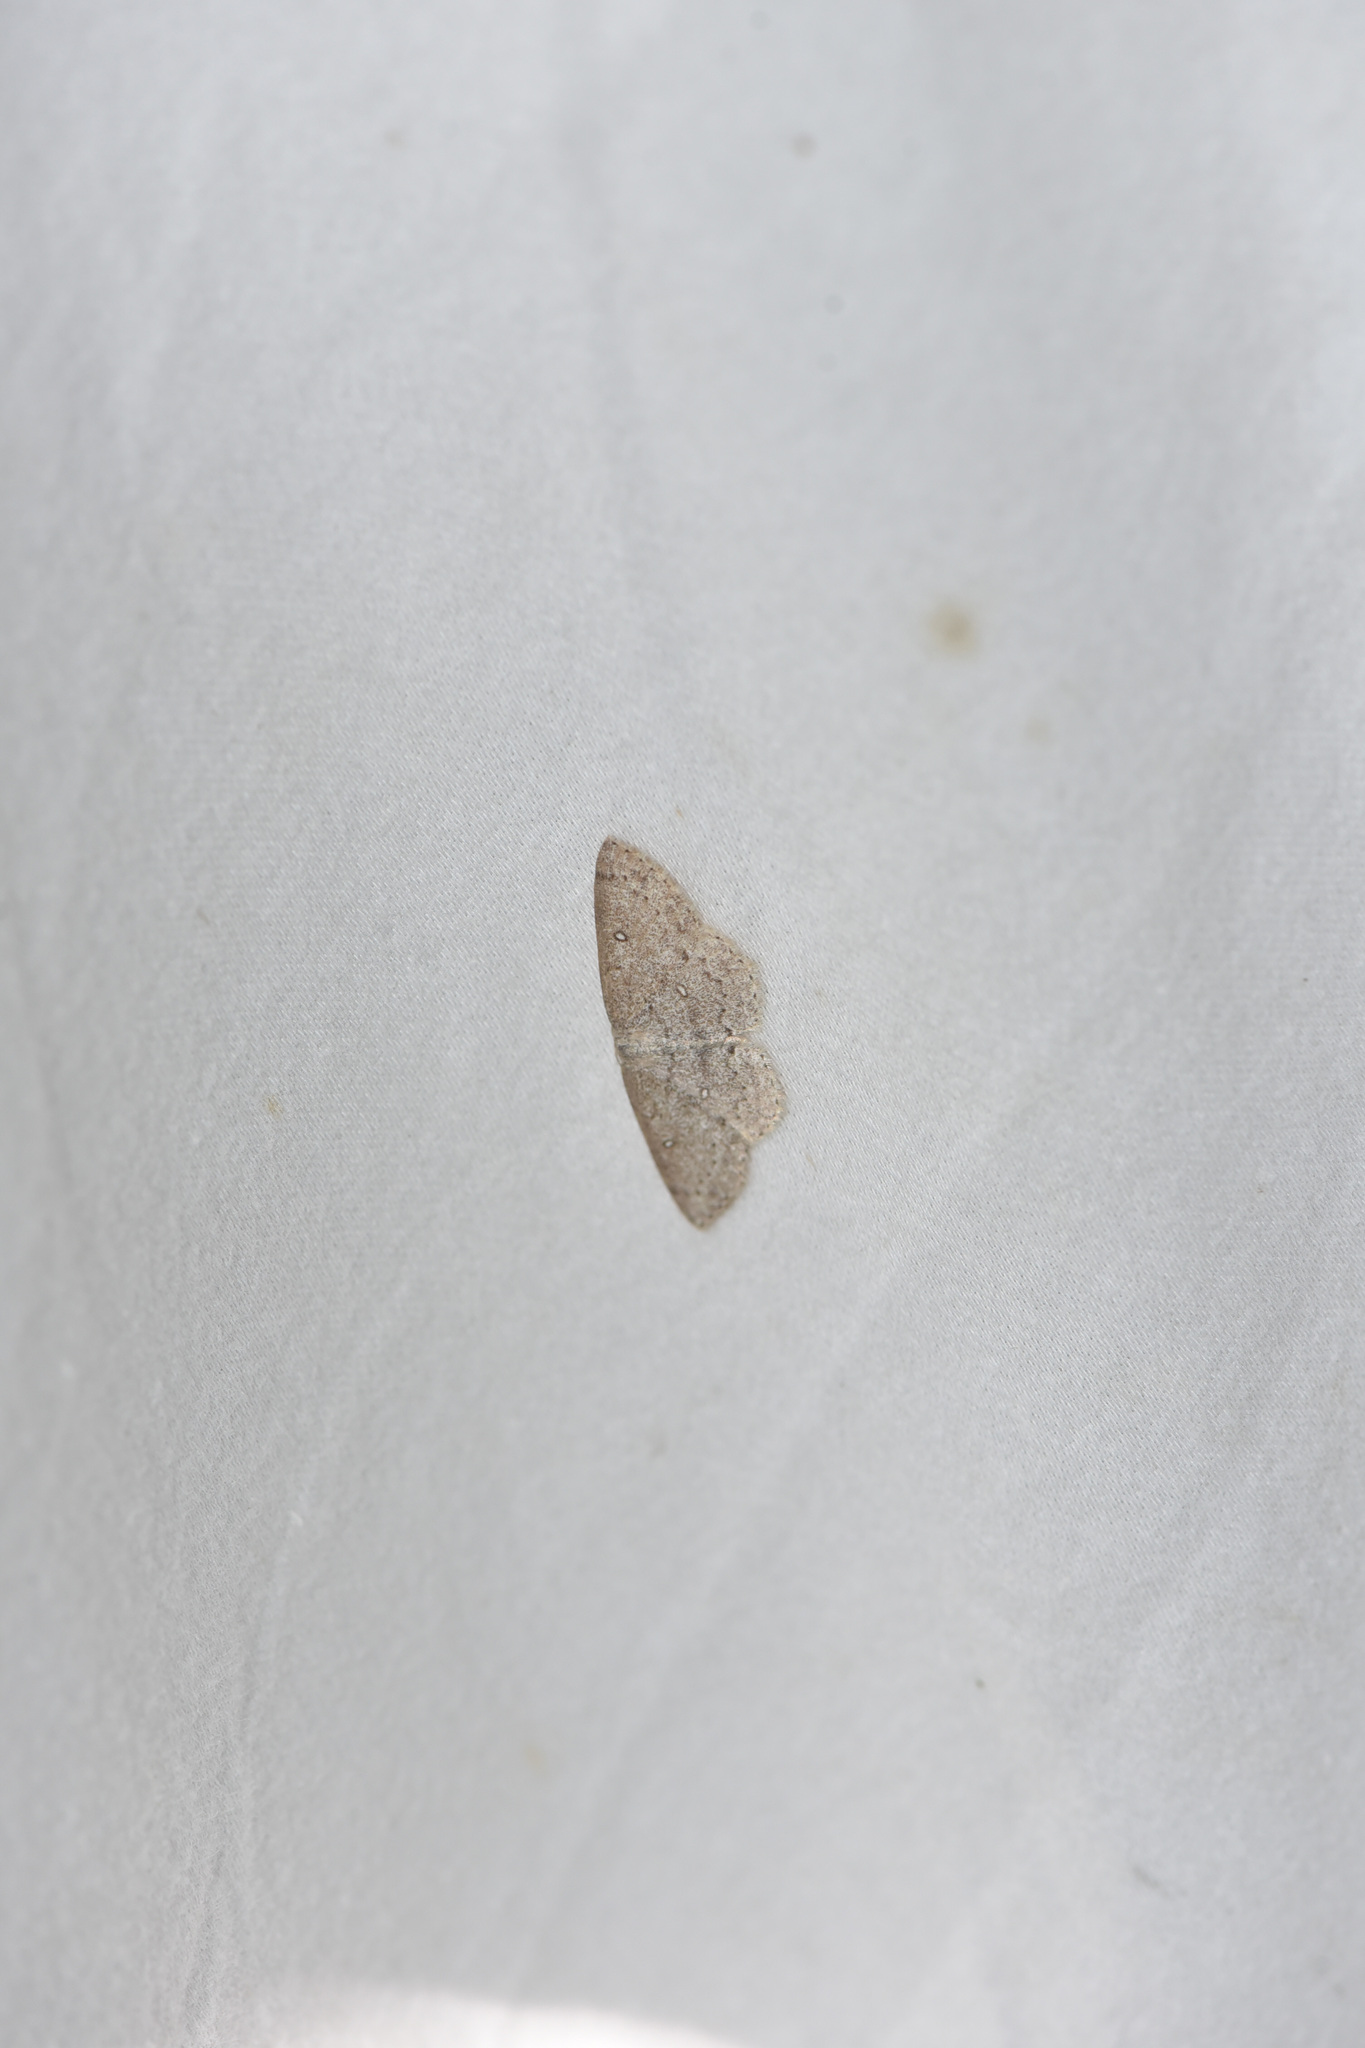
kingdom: Animalia
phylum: Arthropoda
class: Insecta
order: Lepidoptera
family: Geometridae
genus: Cyclophora
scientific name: Cyclophora pendulinaria
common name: Sweet fern geometer
